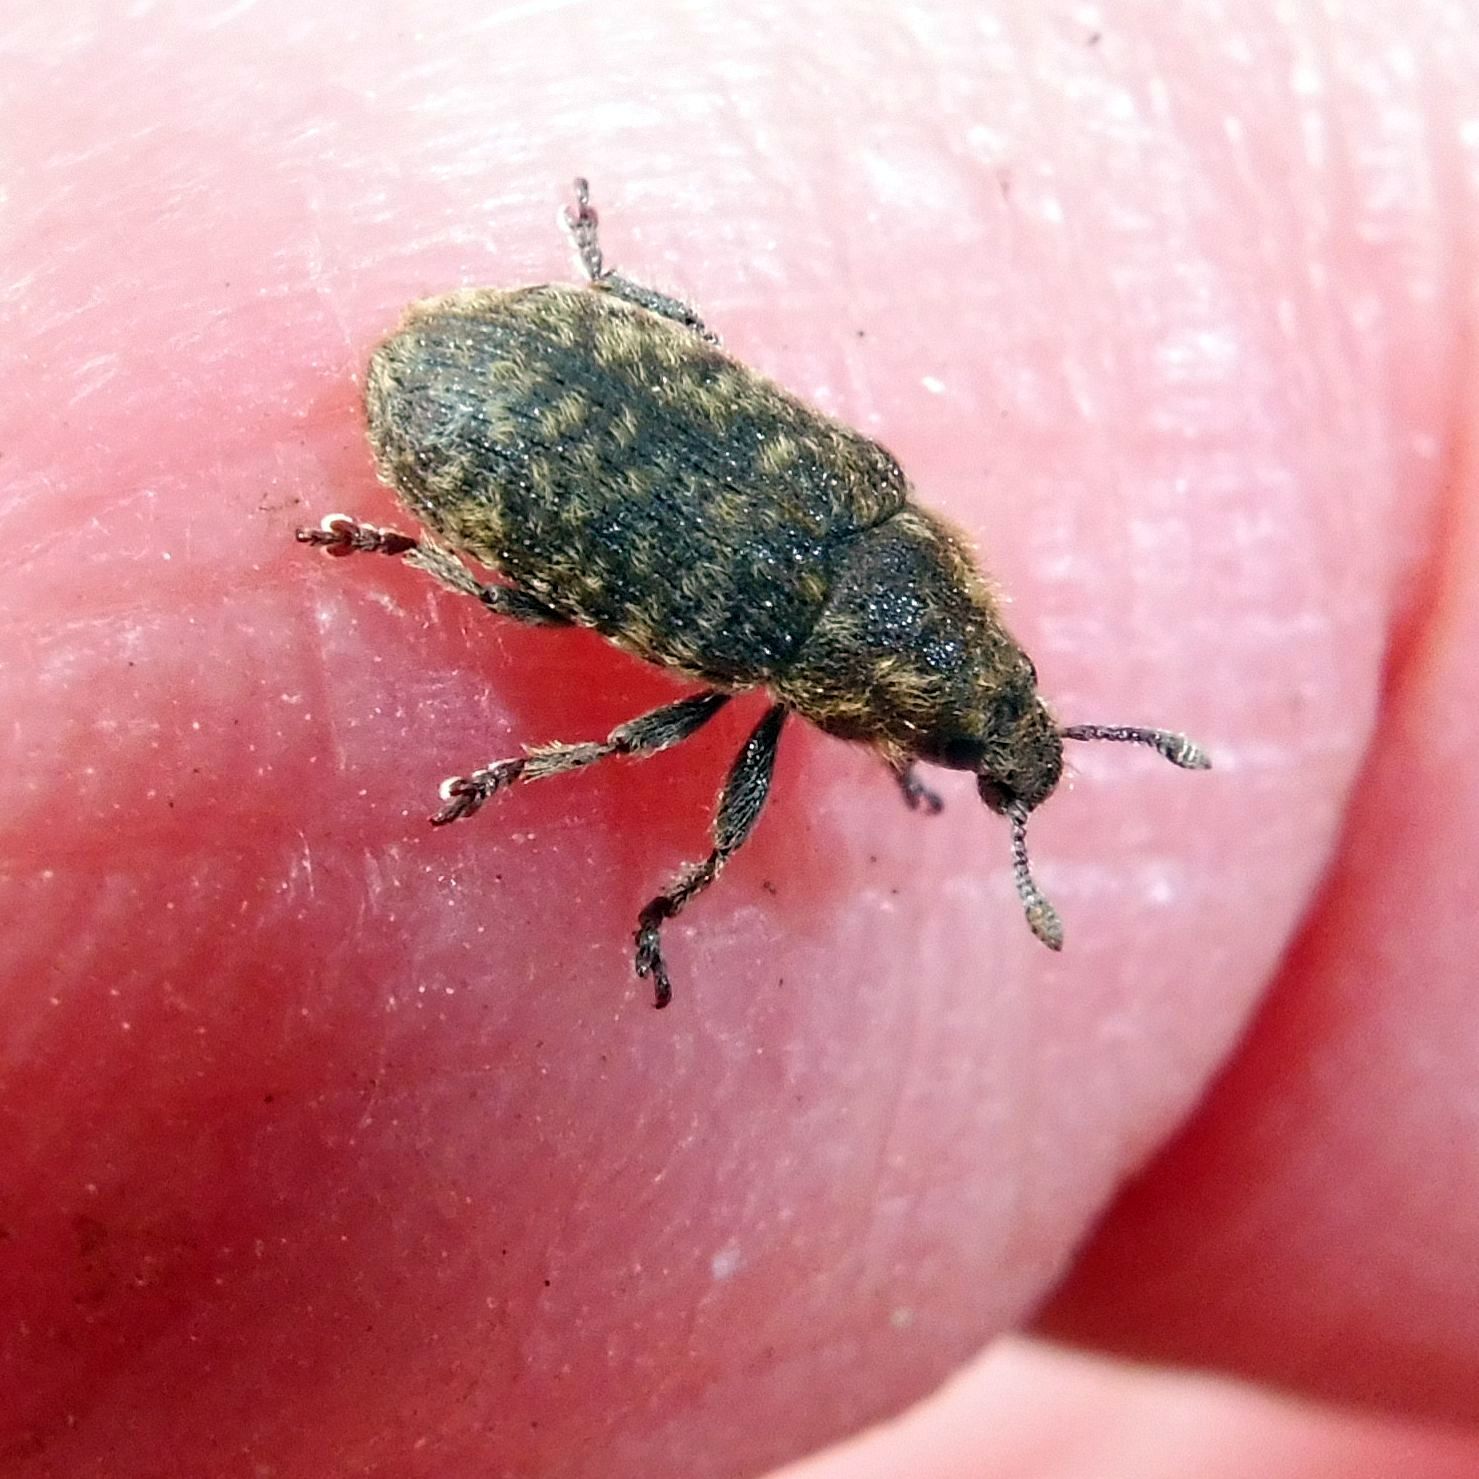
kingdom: Animalia
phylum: Arthropoda
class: Insecta
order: Coleoptera
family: Curculionidae
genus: Rhinocyllus
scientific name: Rhinocyllus conicus
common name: Weevil
